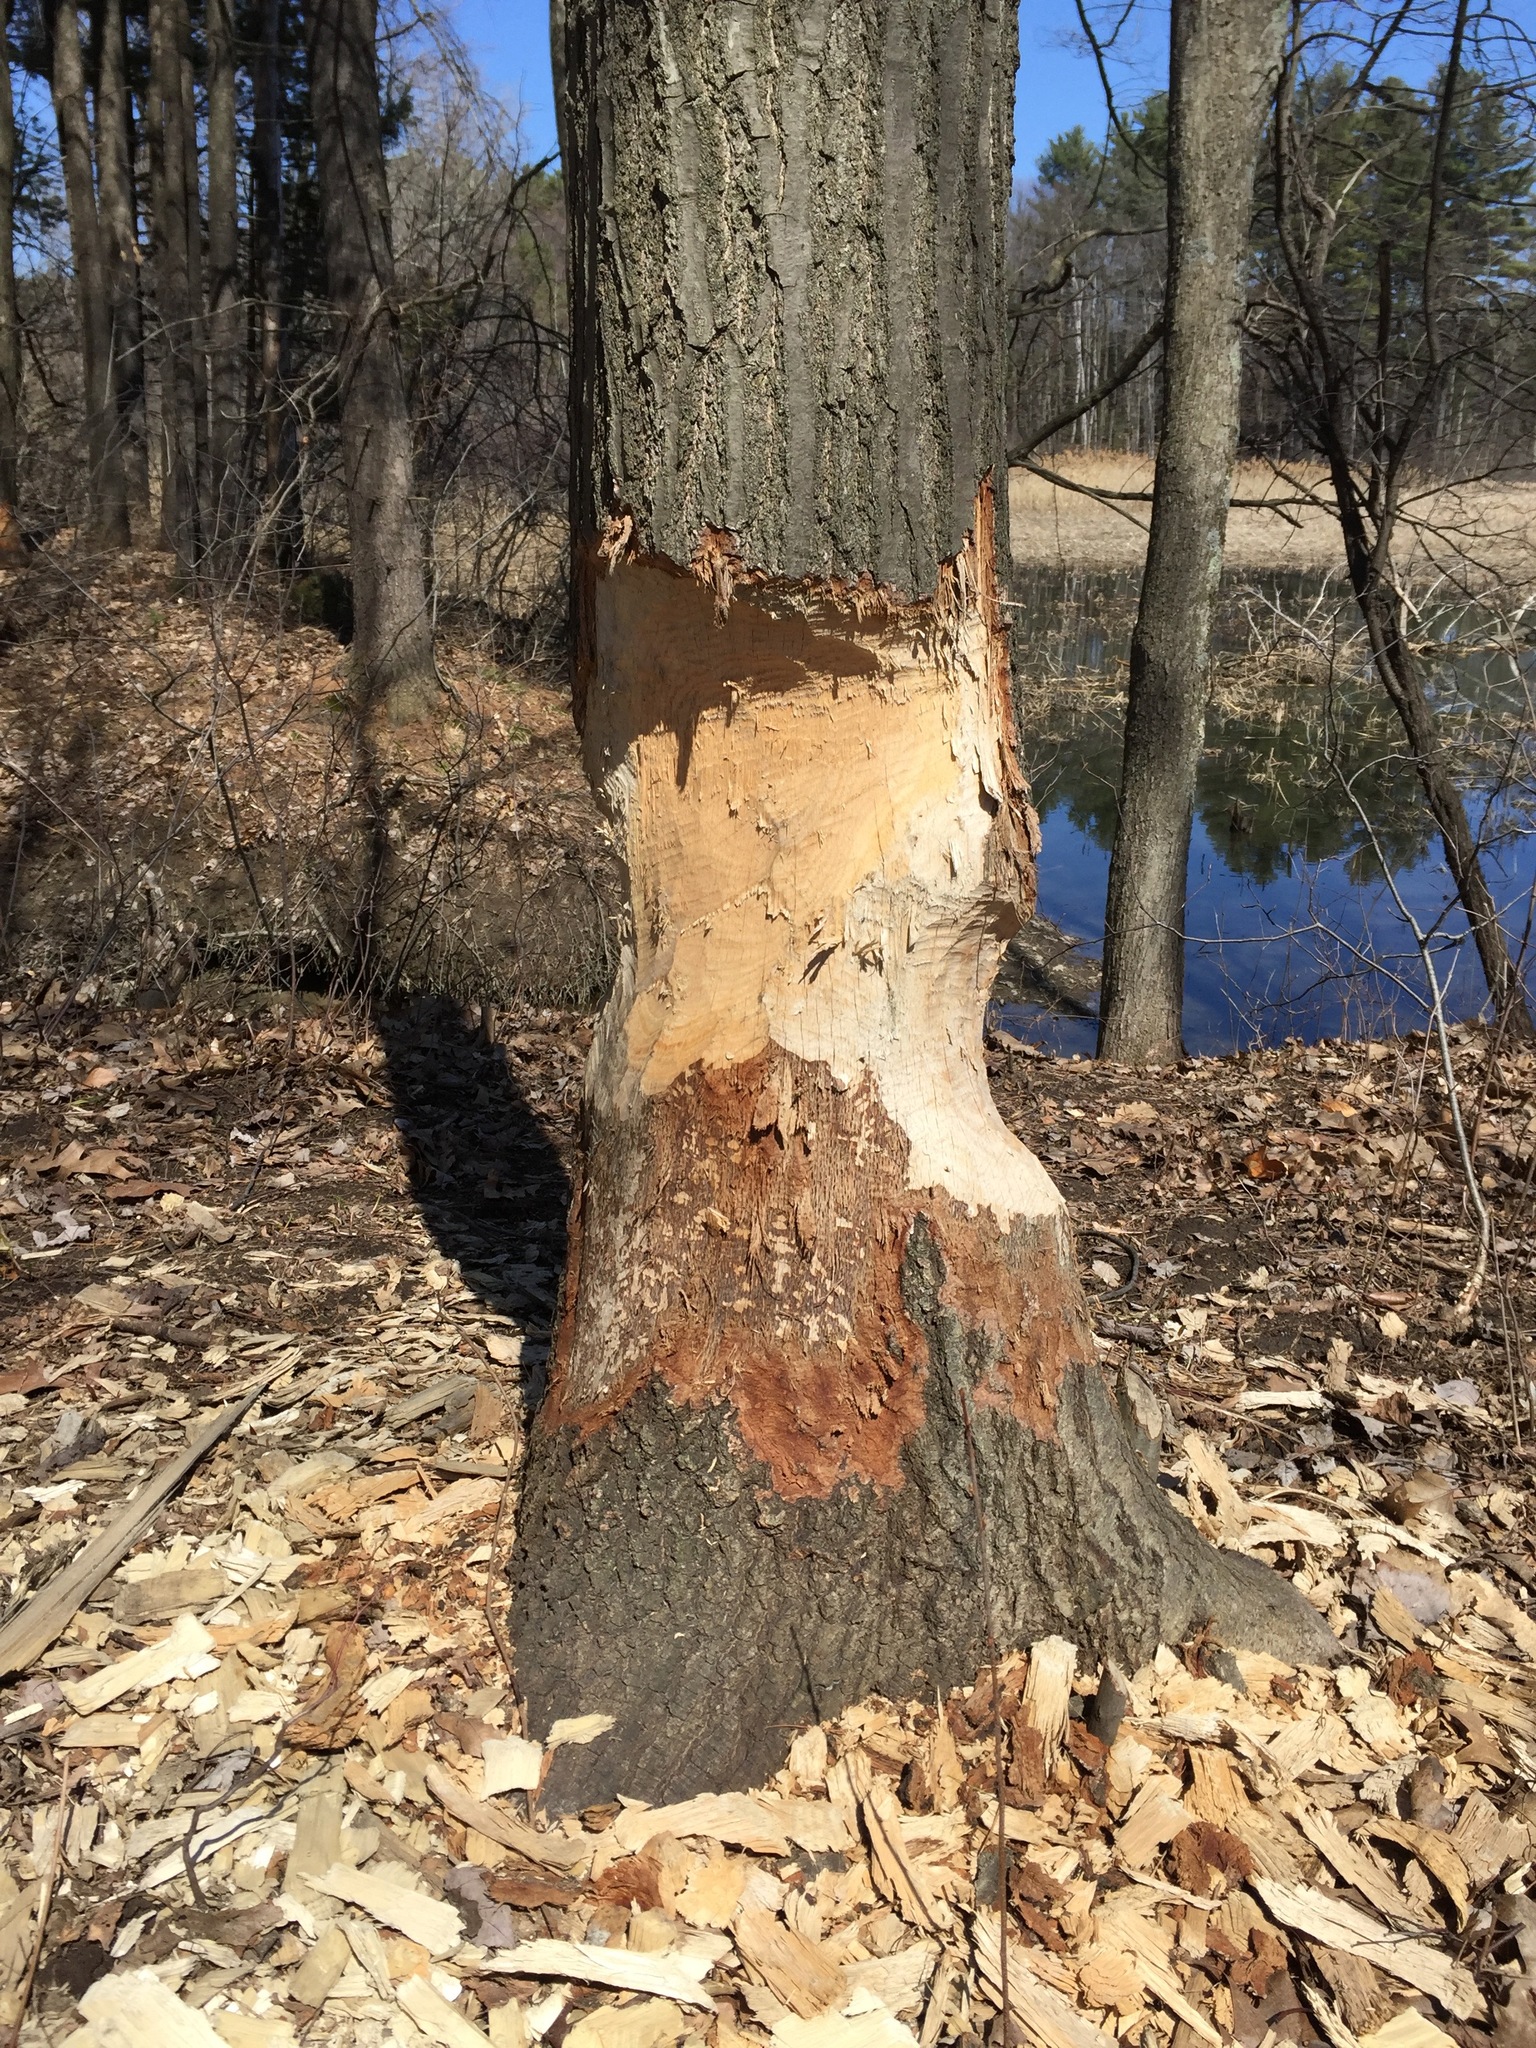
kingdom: Animalia
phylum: Chordata
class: Mammalia
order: Rodentia
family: Castoridae
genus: Castor
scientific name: Castor canadensis
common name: American beaver
